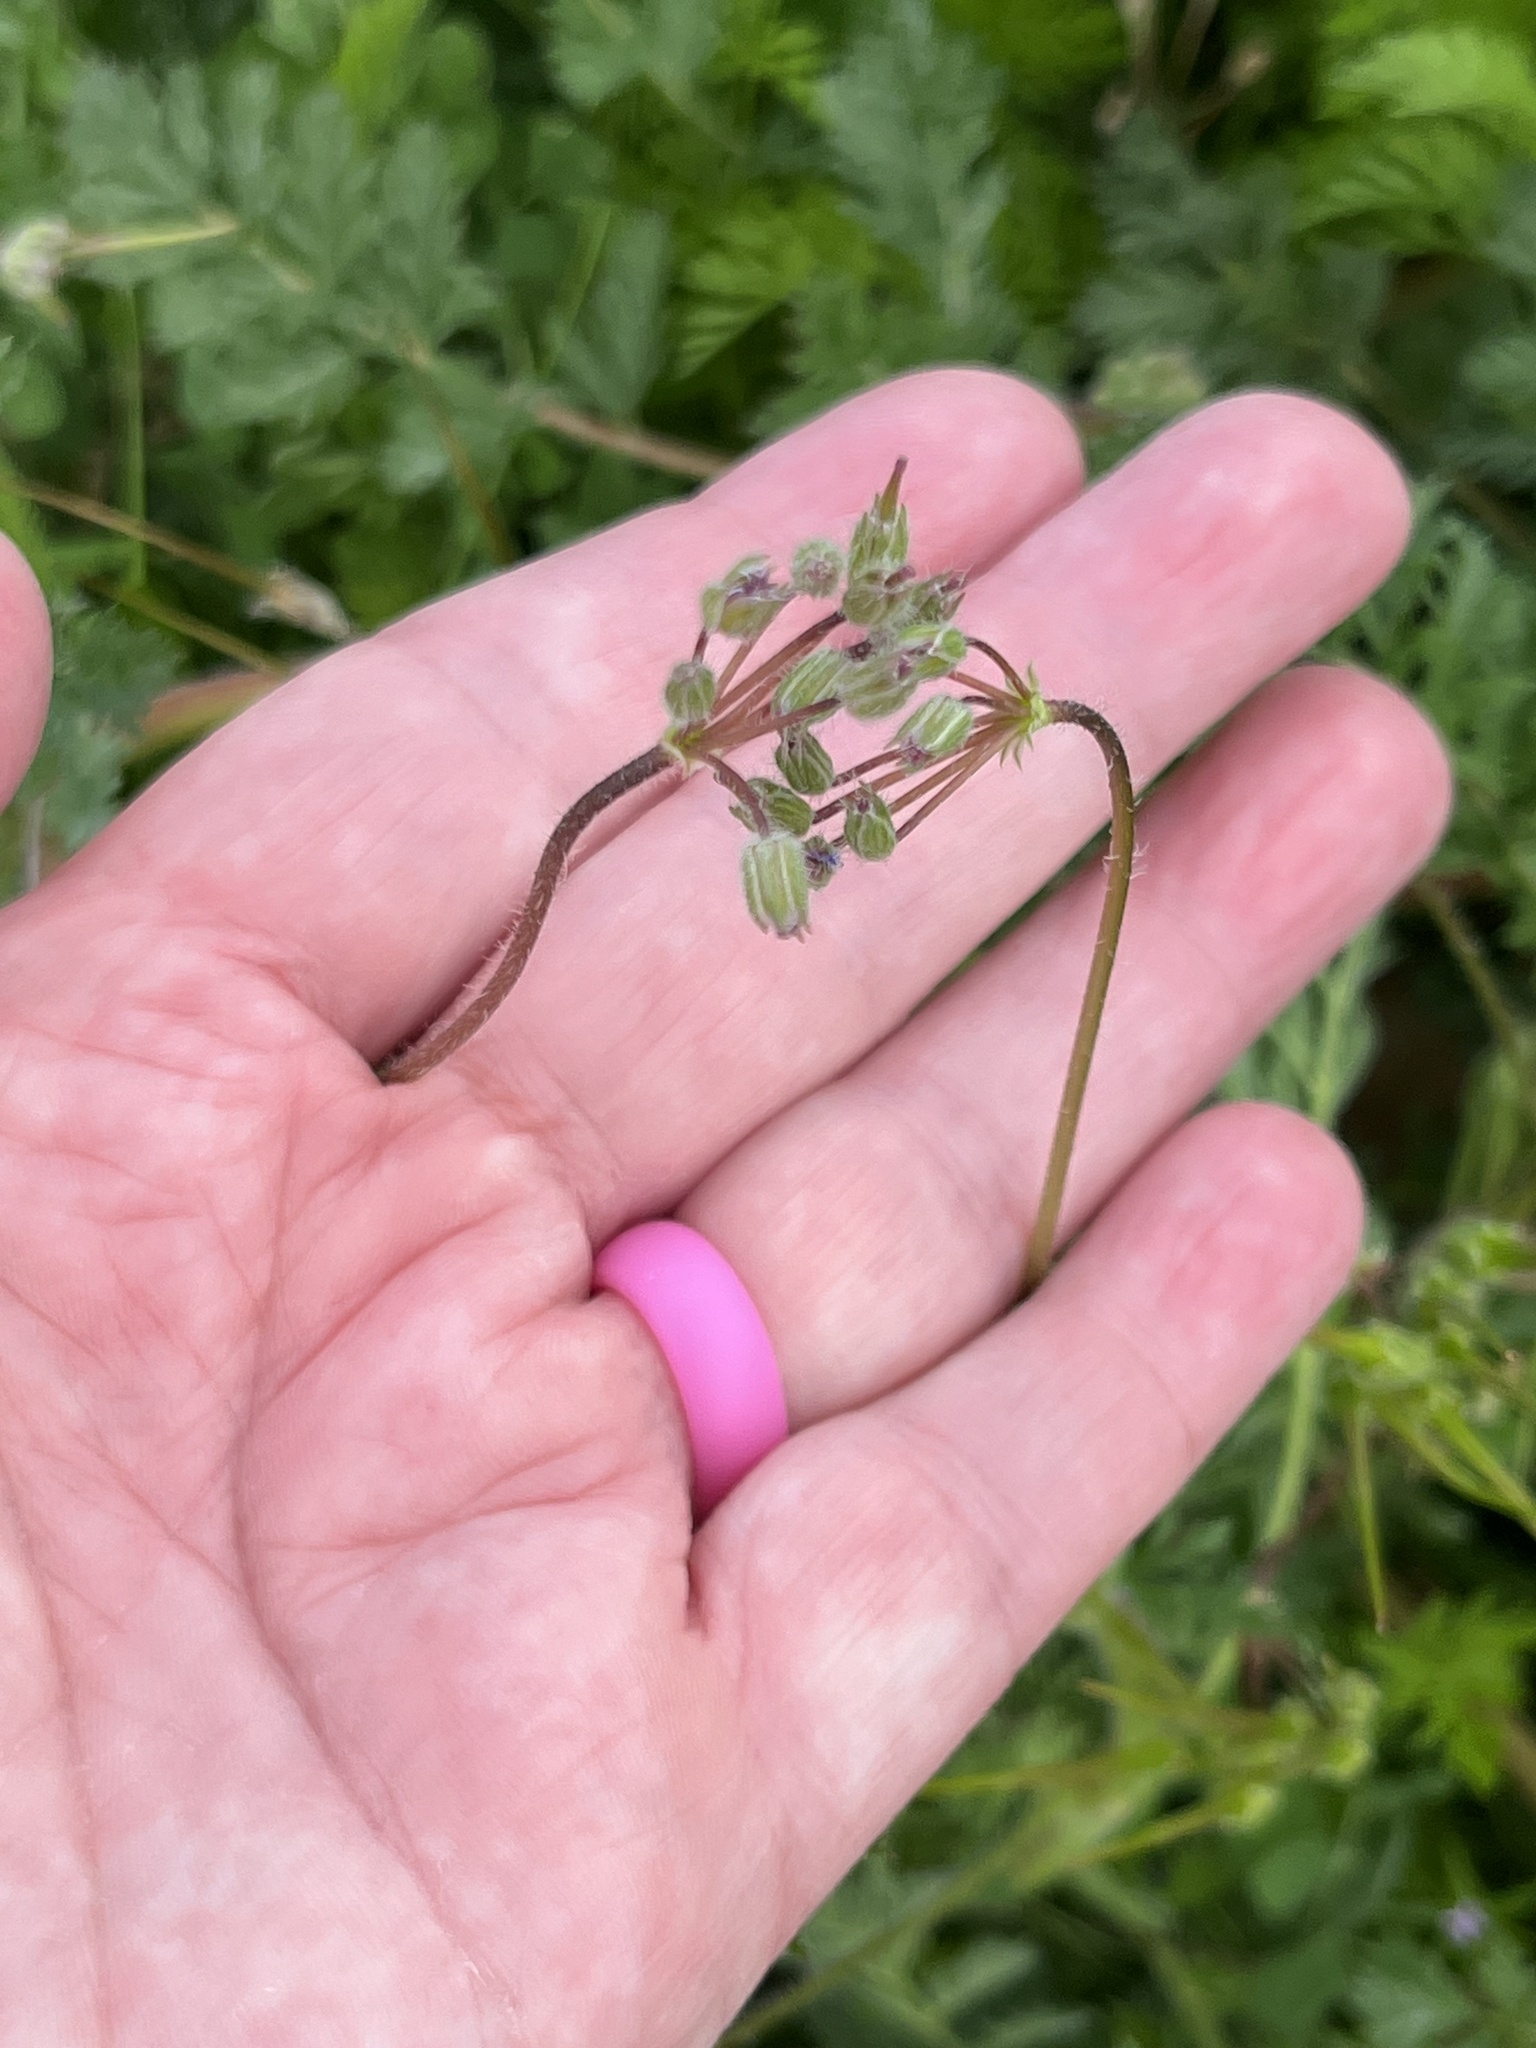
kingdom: Plantae
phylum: Tracheophyta
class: Magnoliopsida
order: Geraniales
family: Geraniaceae
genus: Erodium
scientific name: Erodium cicutarium
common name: Common stork's-bill
